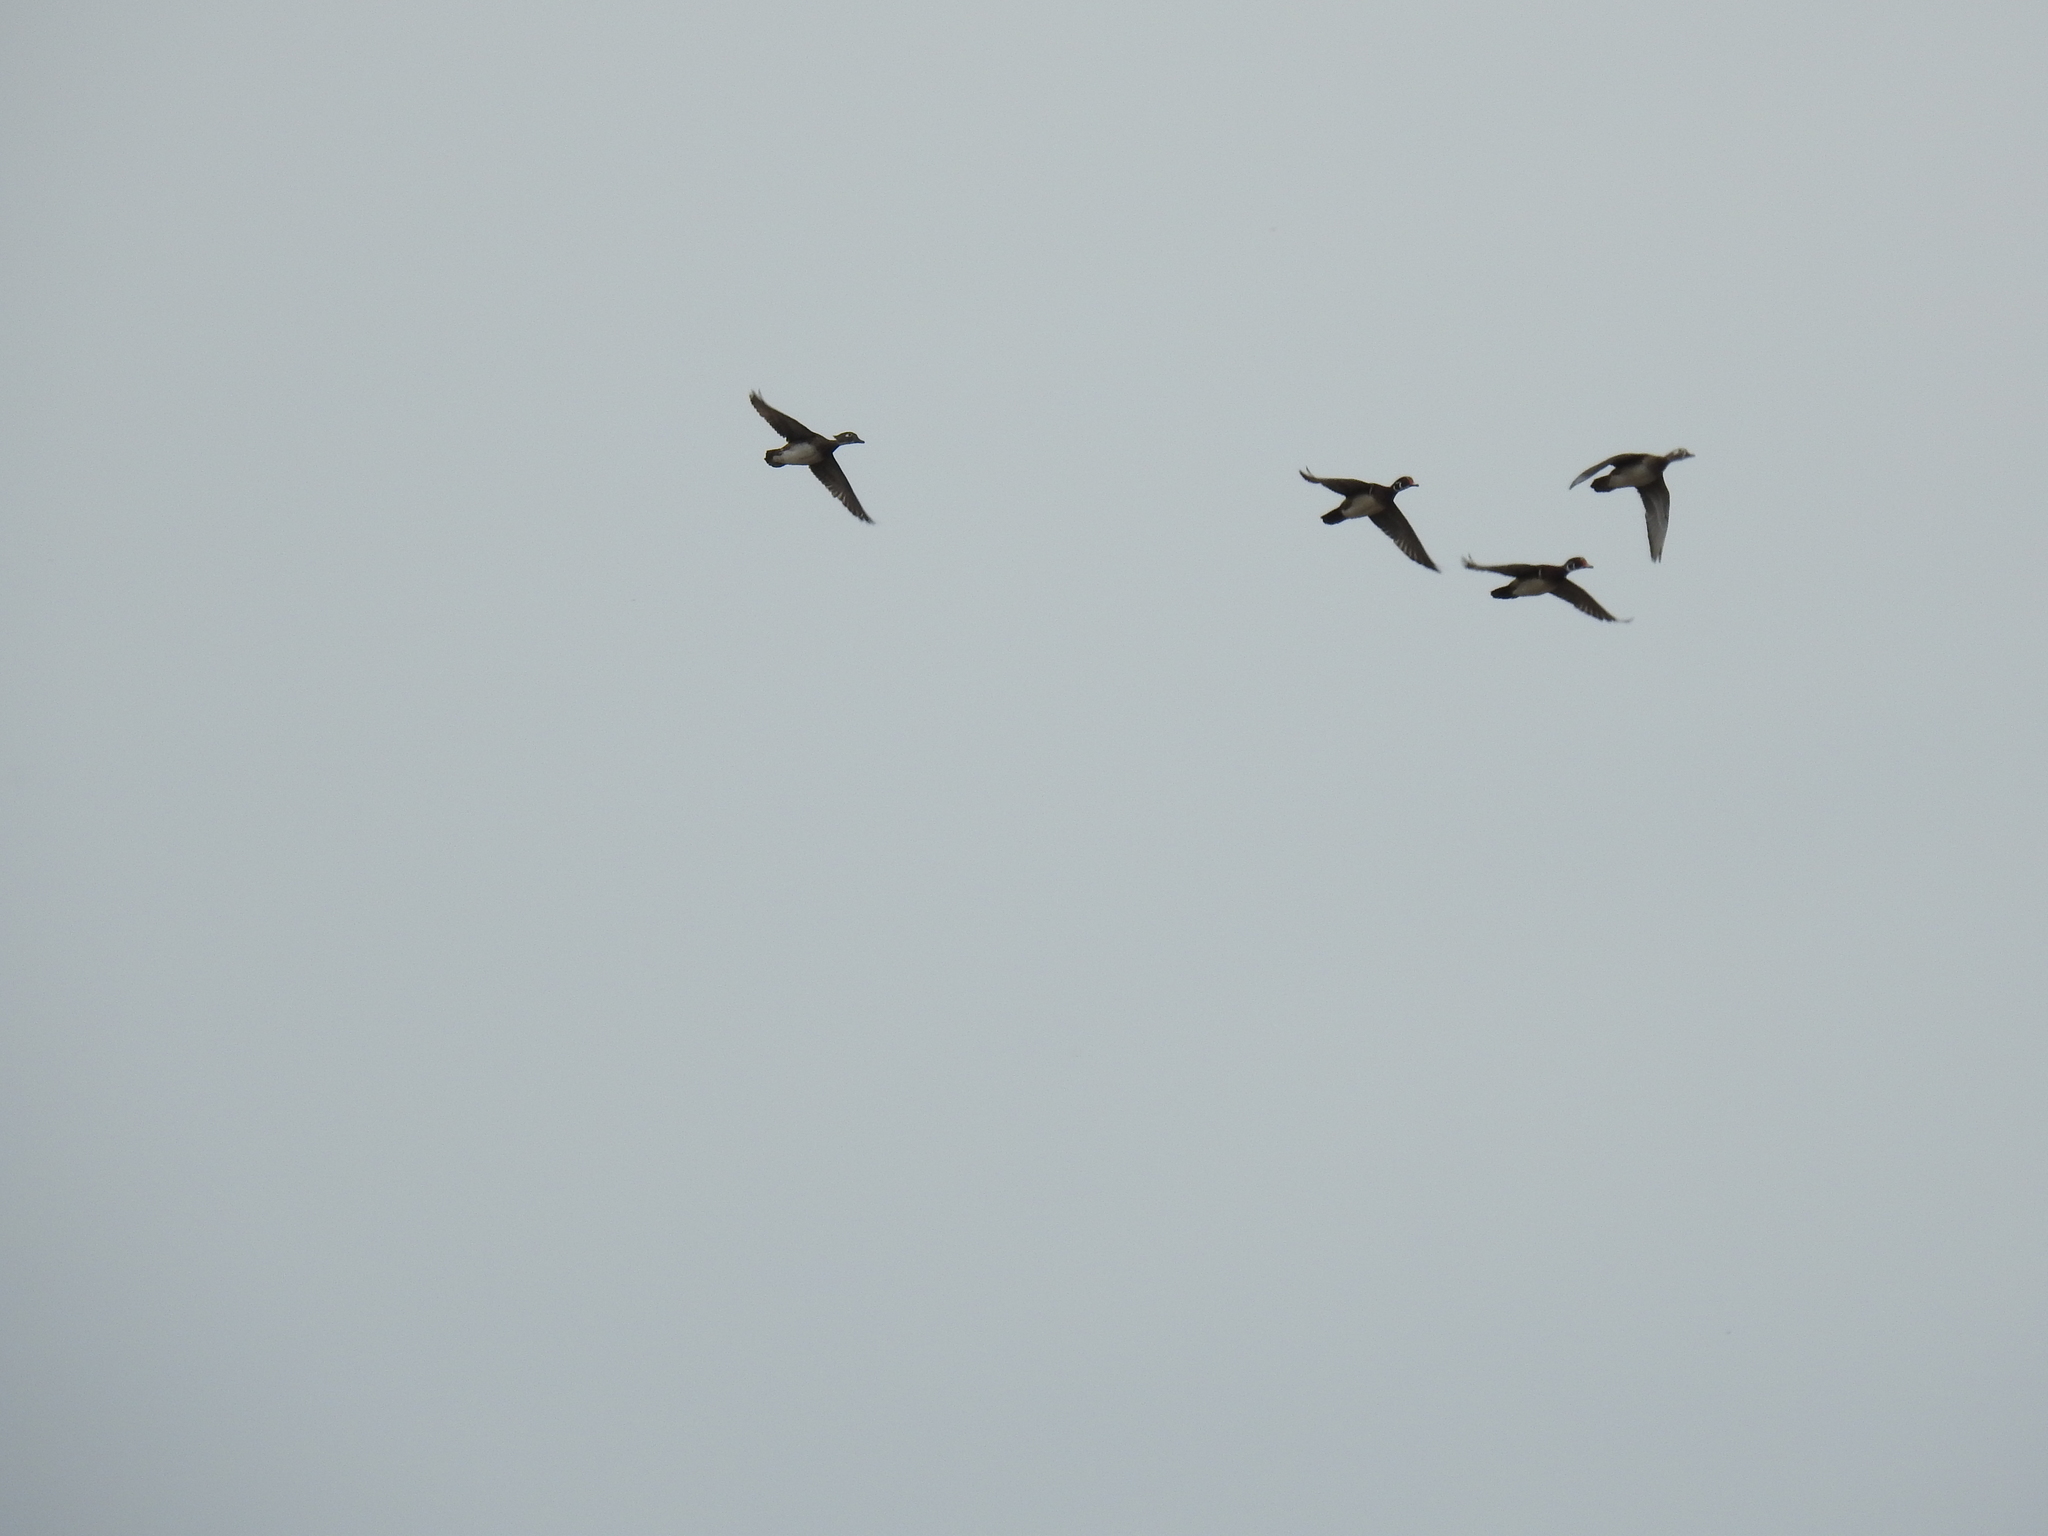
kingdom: Animalia
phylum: Chordata
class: Aves
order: Anseriformes
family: Anatidae
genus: Aix
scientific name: Aix sponsa
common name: Wood duck
